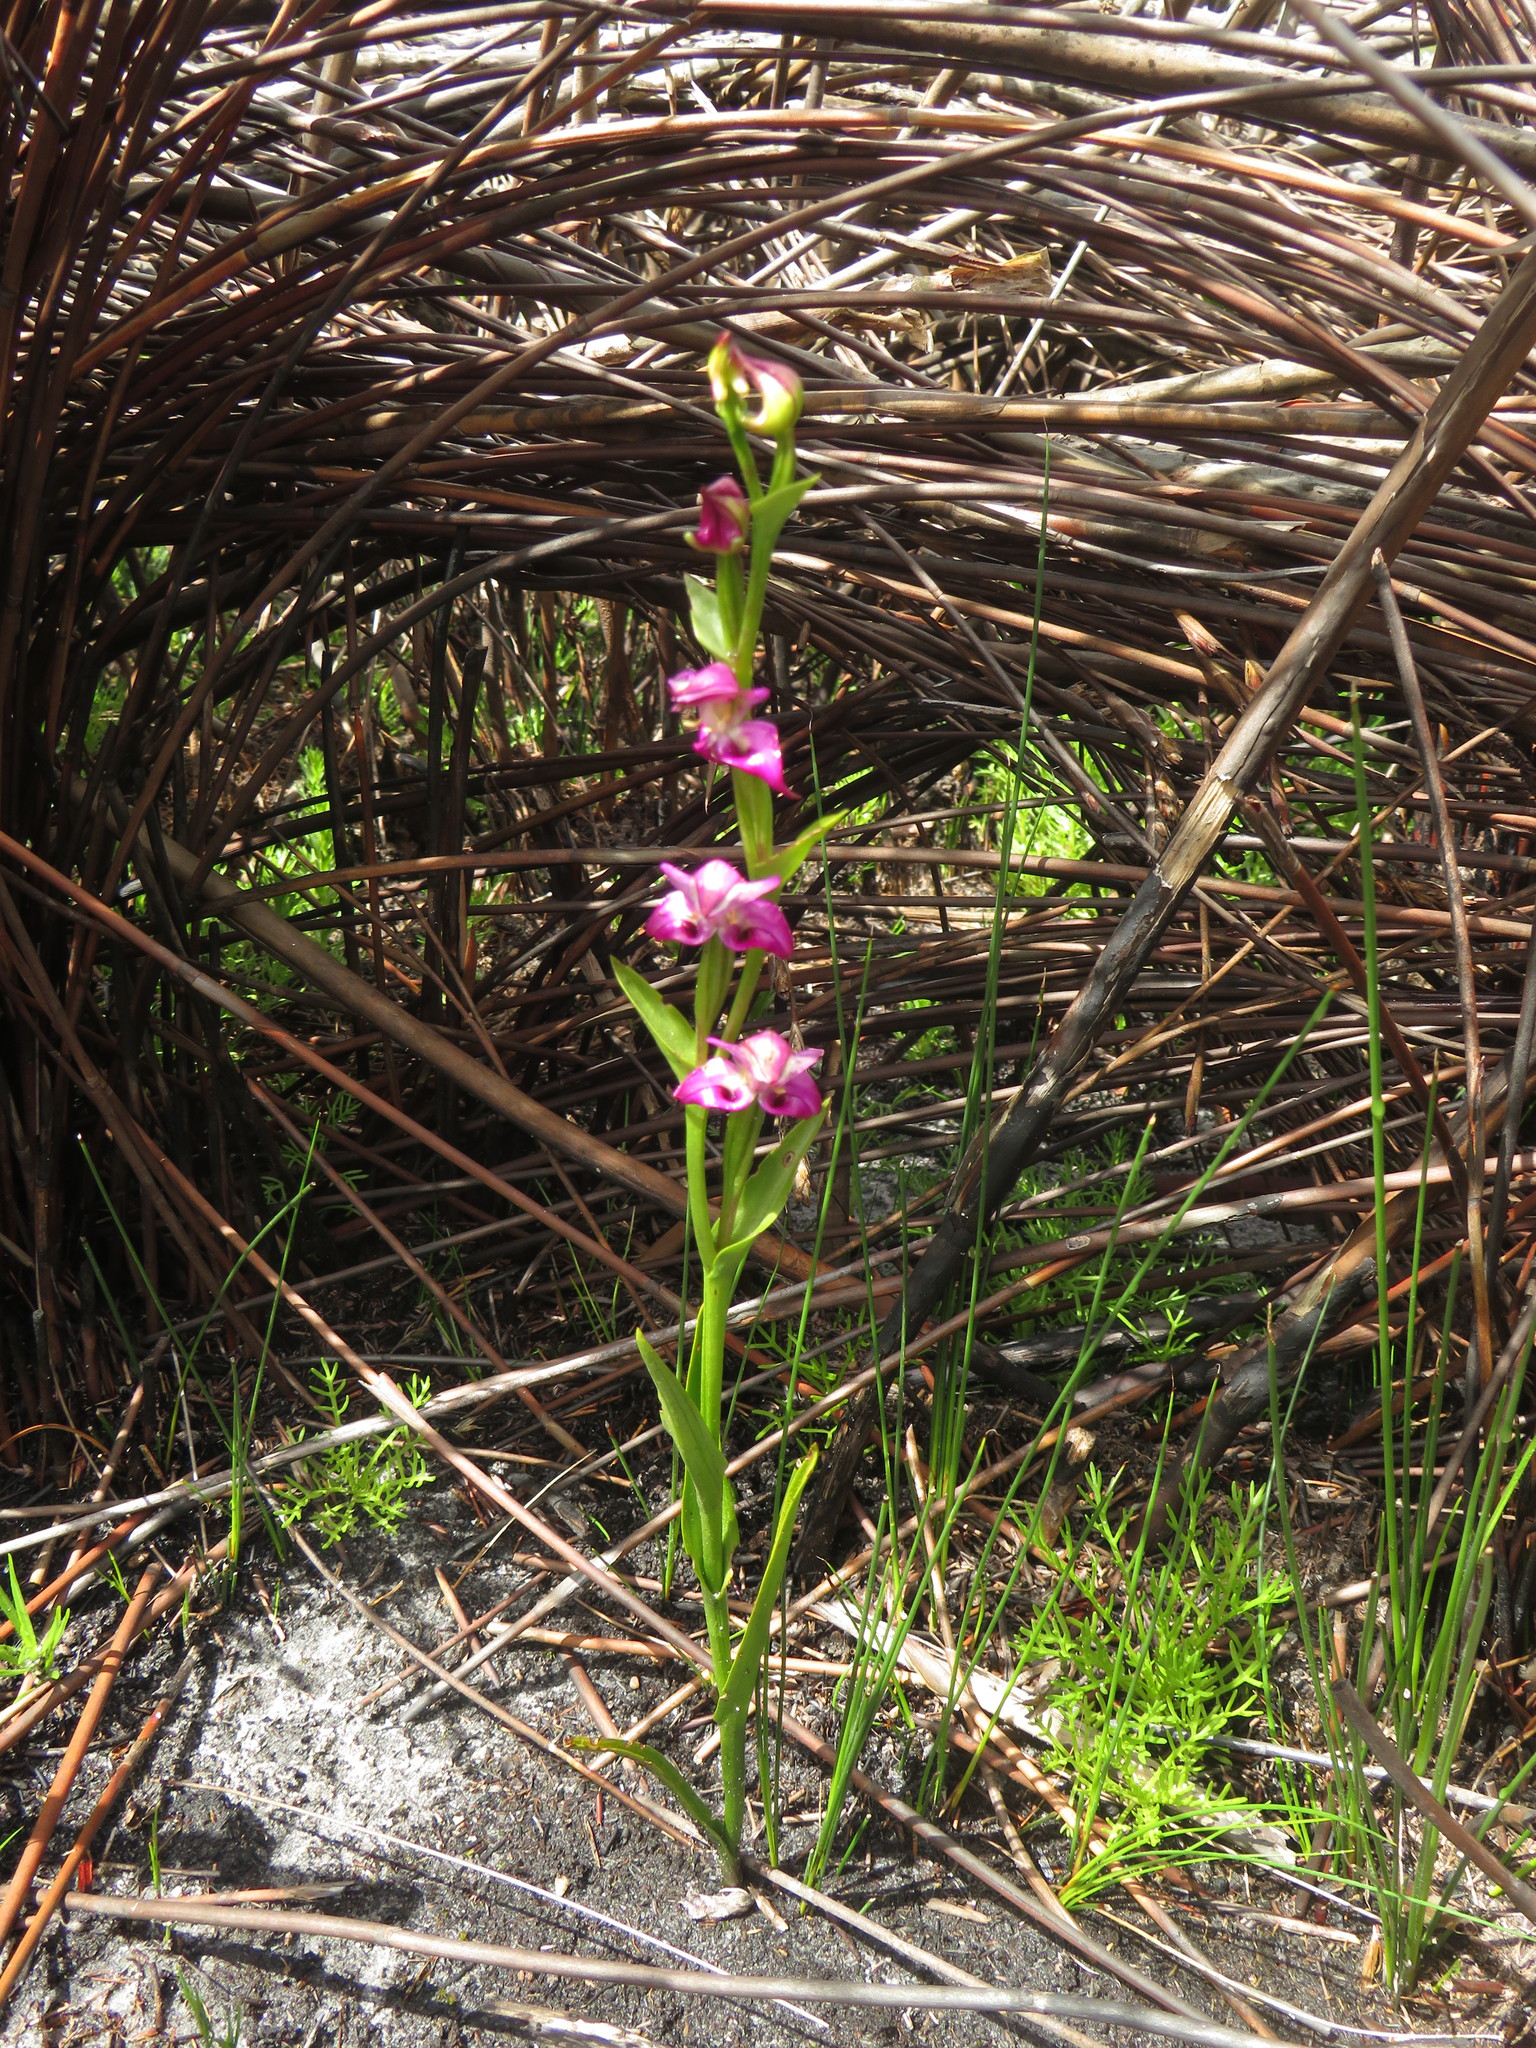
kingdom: Plantae
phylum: Tracheophyta
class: Liliopsida
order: Asparagales
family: Orchidaceae
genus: Disperis
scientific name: Disperis paludosa
